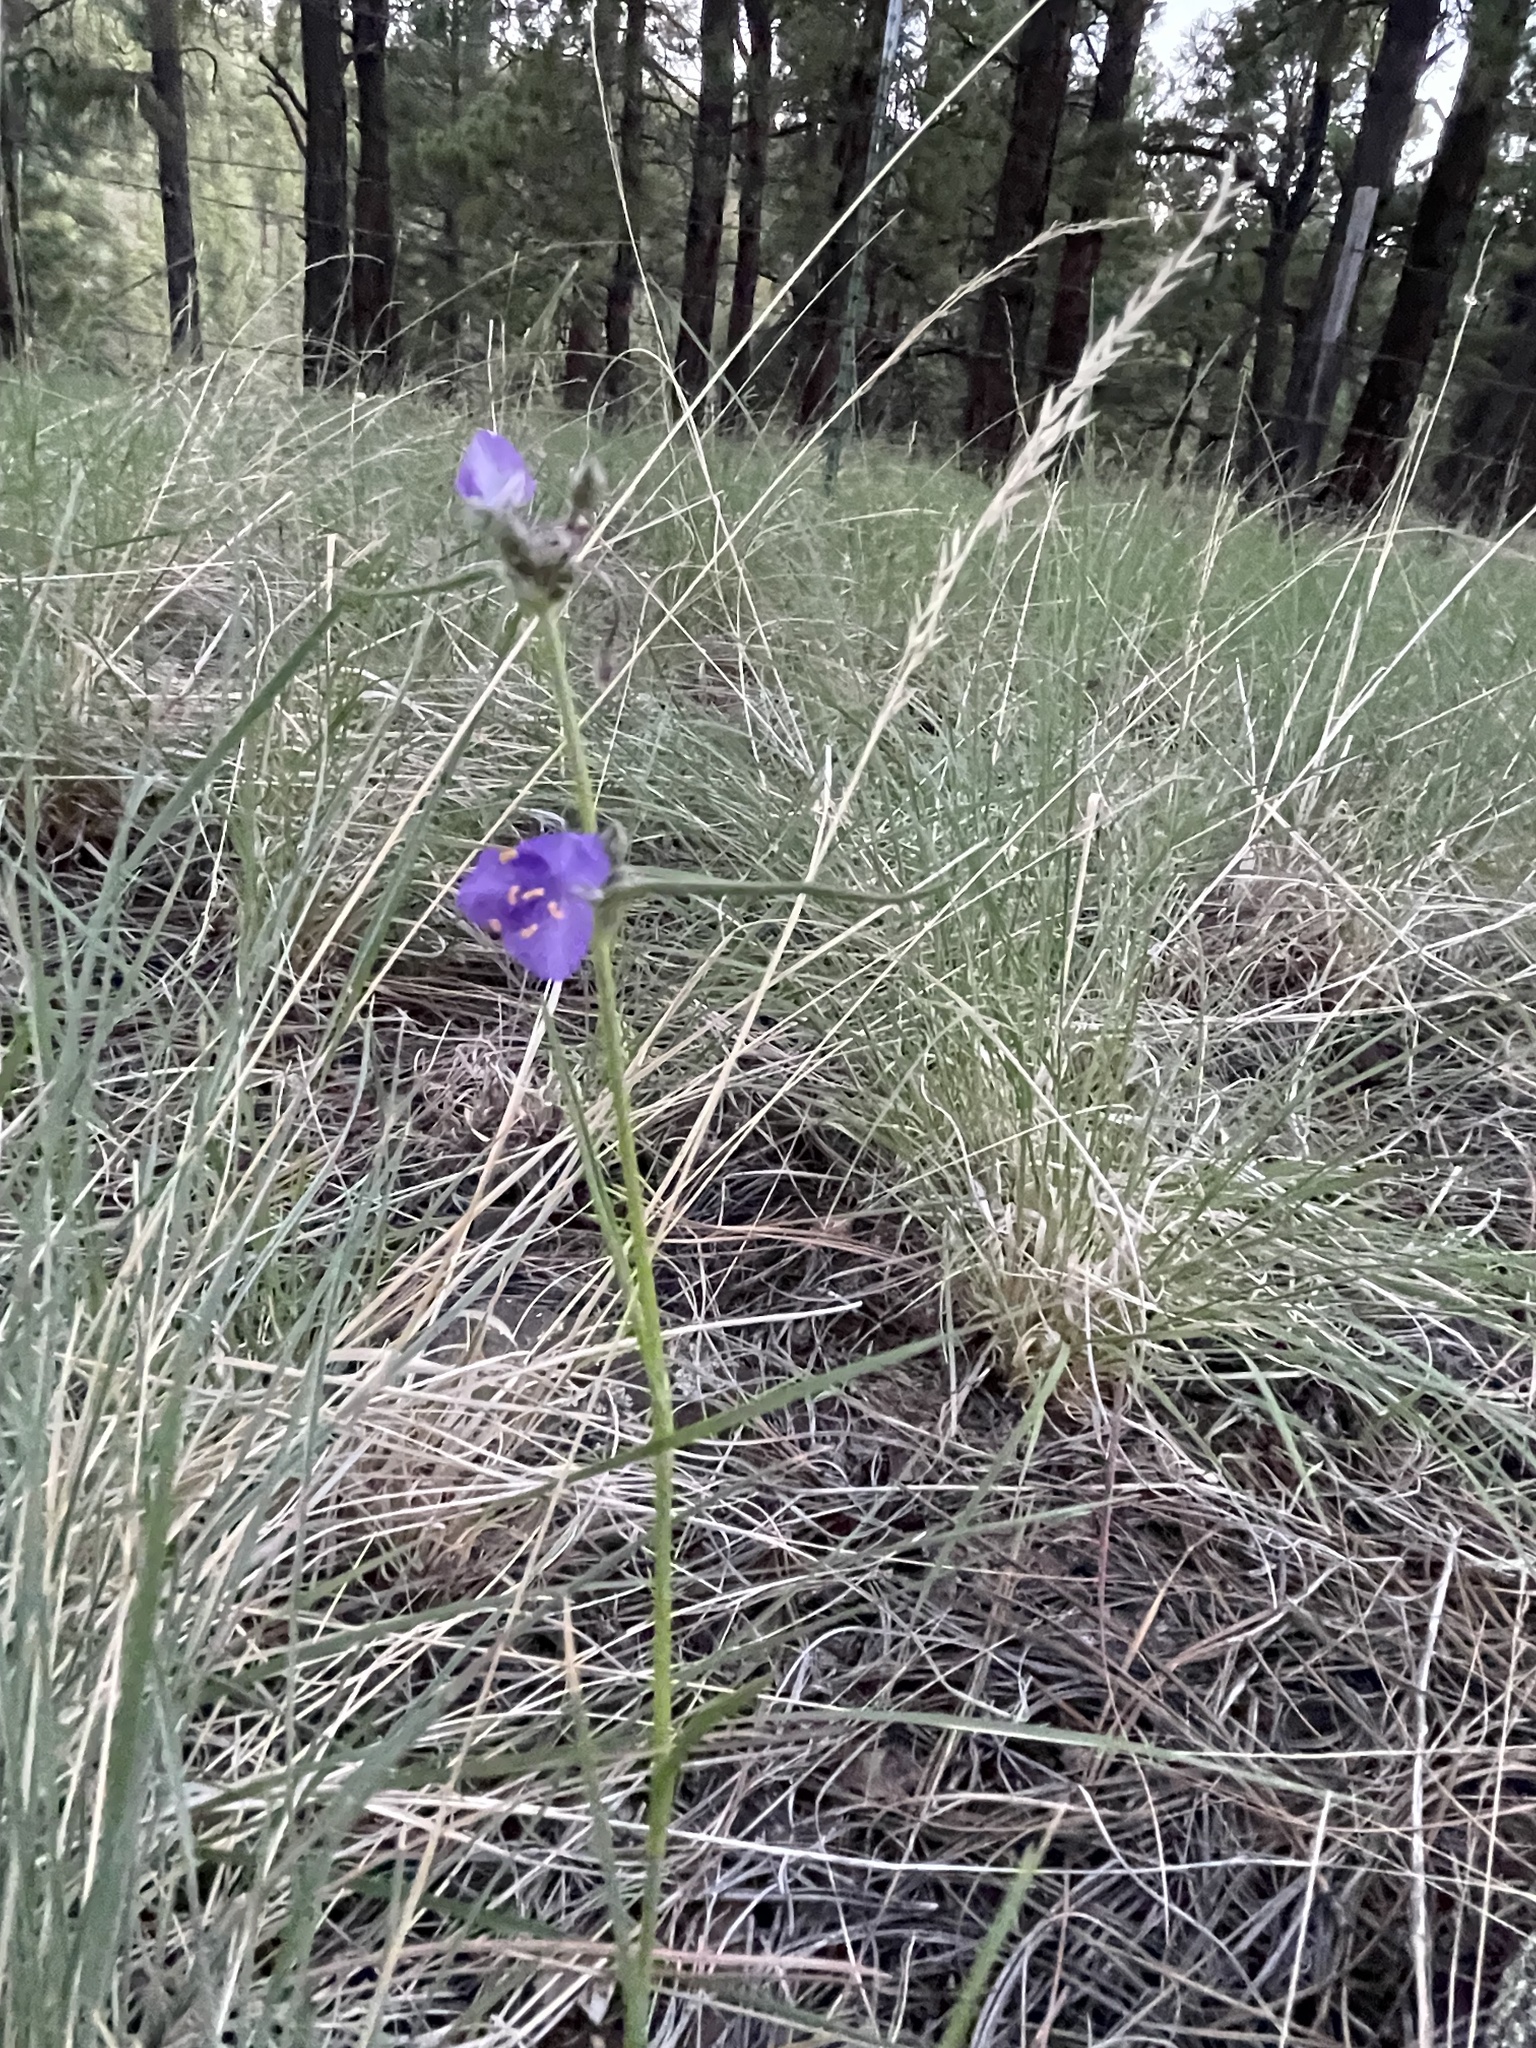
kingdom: Plantae
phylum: Tracheophyta
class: Liliopsida
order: Commelinales
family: Commelinaceae
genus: Tradescantia
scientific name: Tradescantia pinetorum
